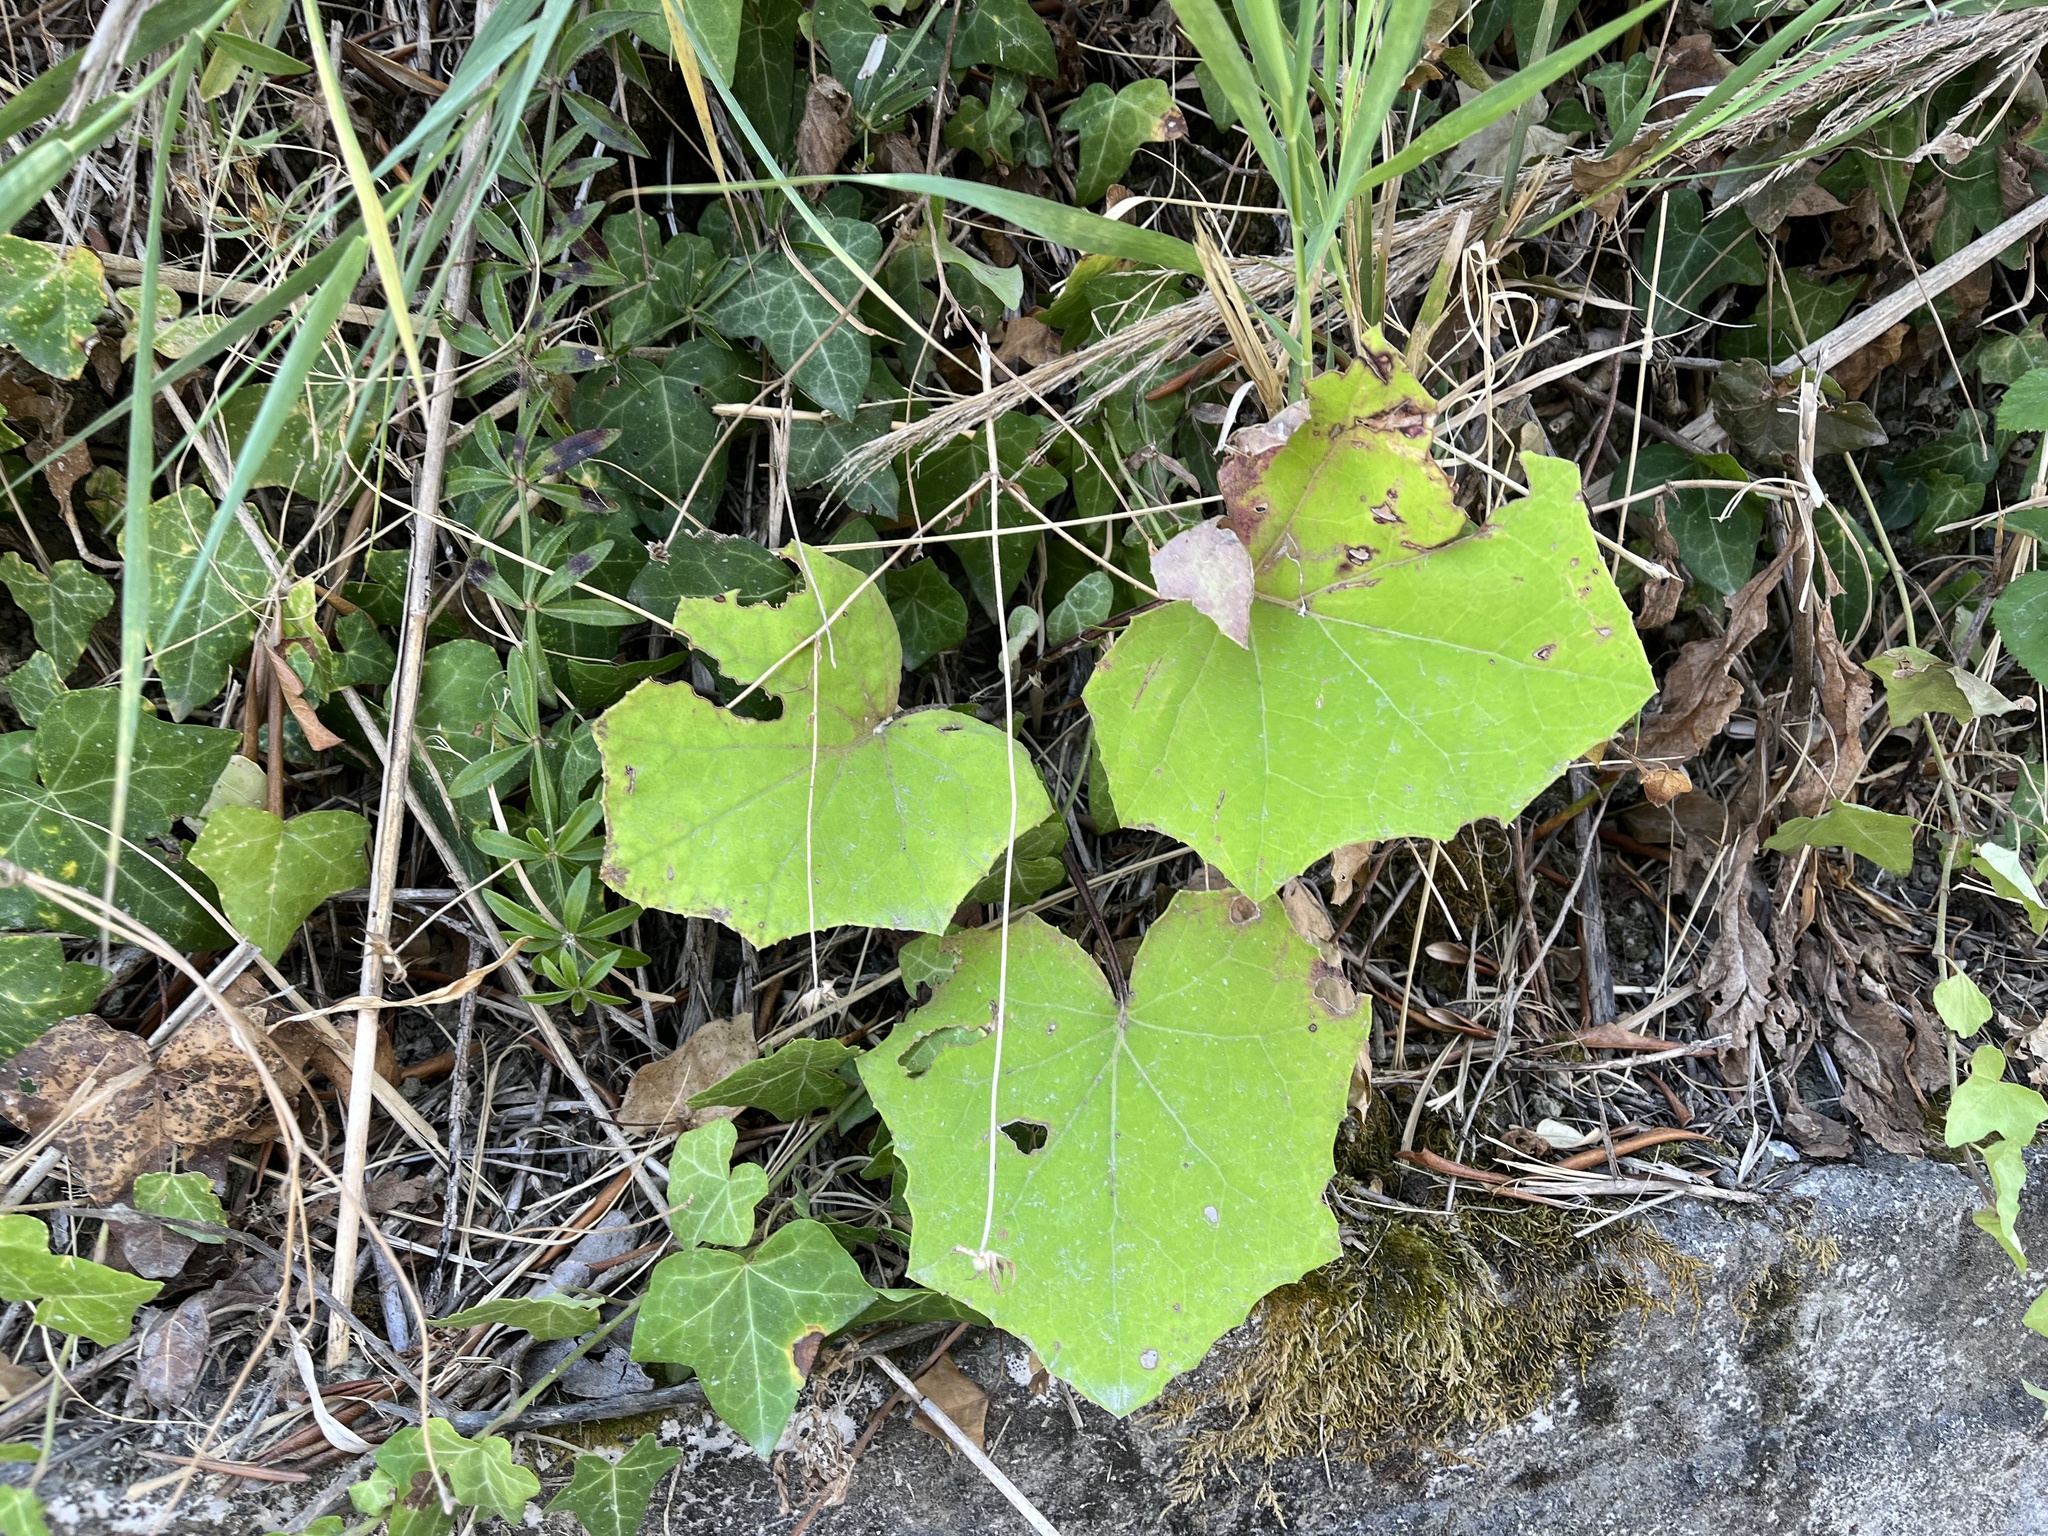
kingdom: Plantae
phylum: Tracheophyta
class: Magnoliopsida
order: Asterales
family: Asteraceae
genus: Tussilago
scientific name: Tussilago farfara
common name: Coltsfoot
